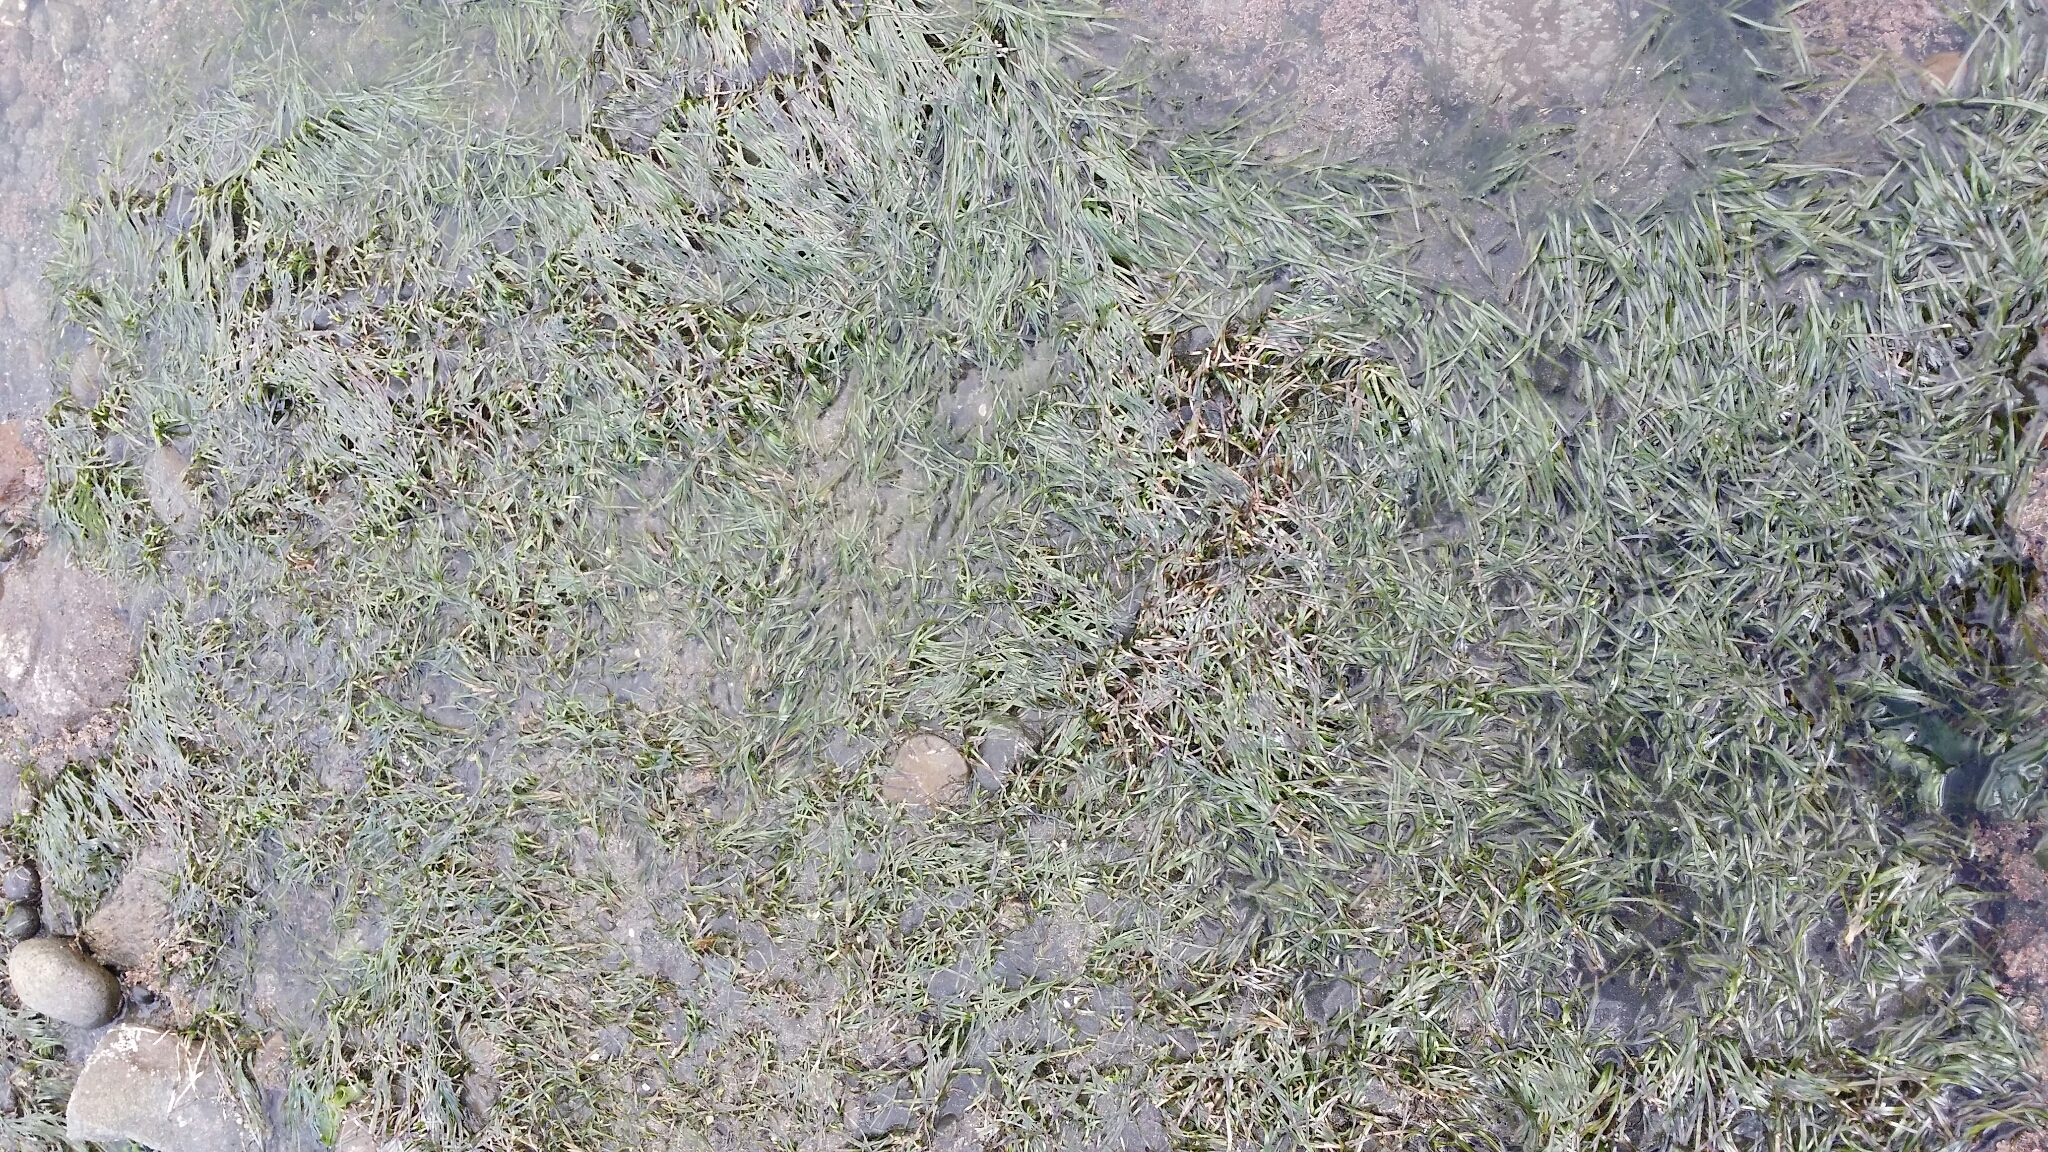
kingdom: Plantae
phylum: Tracheophyta
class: Liliopsida
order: Alismatales
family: Zosteraceae
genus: Zostera
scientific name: Zostera novazelandica
